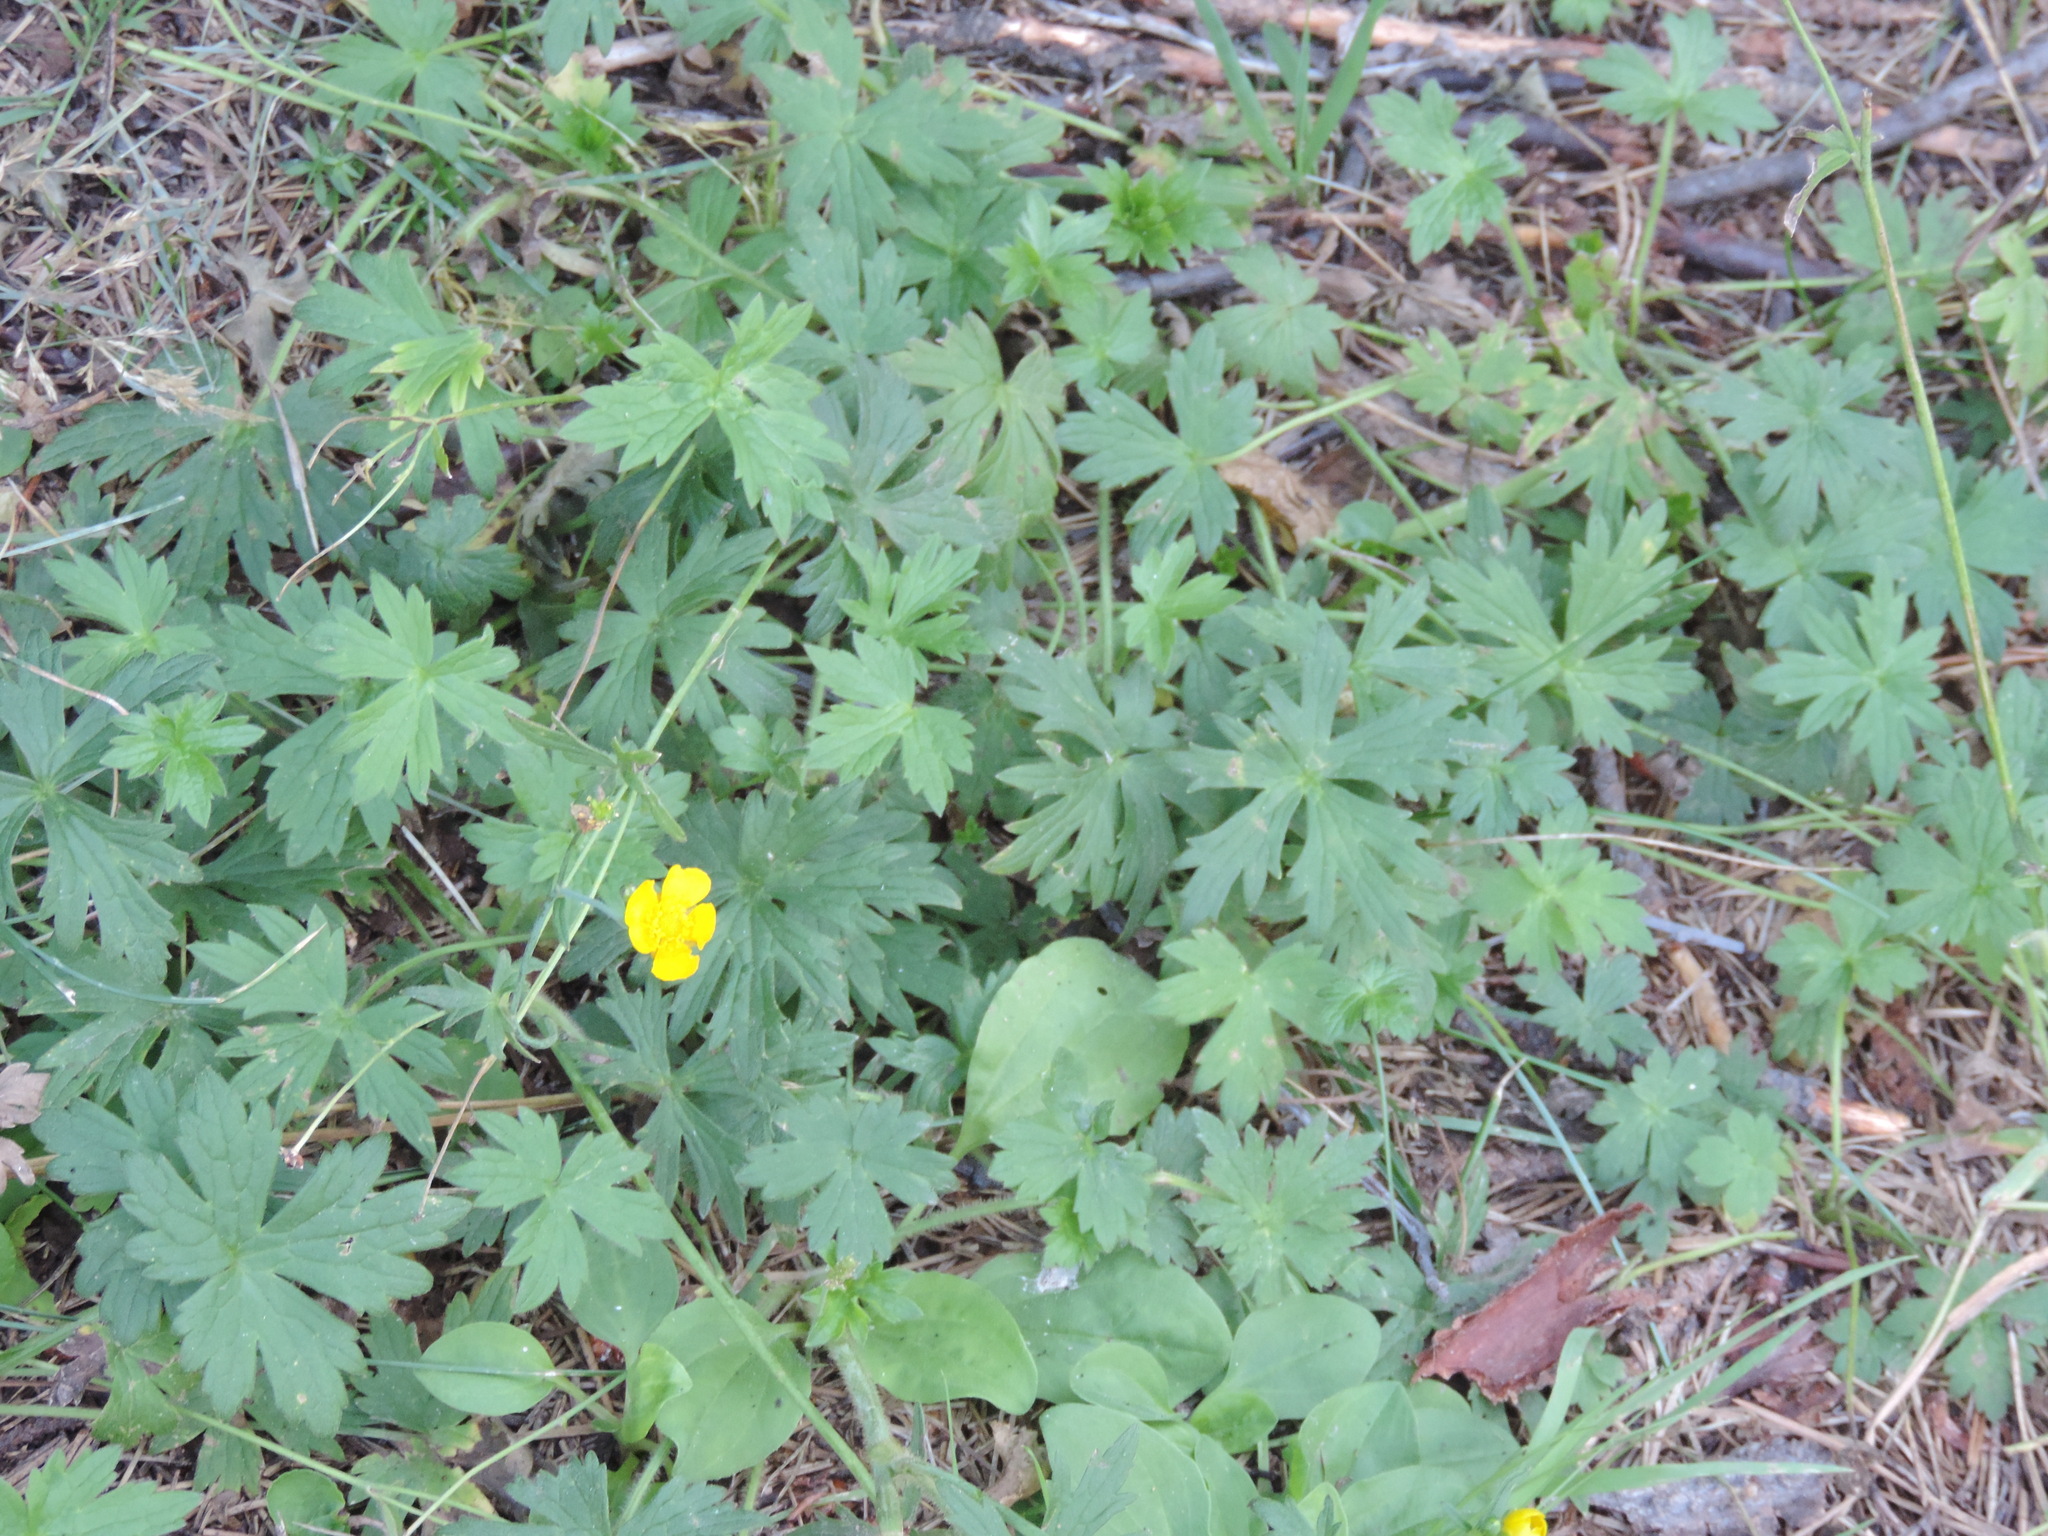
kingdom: Plantae
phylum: Tracheophyta
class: Magnoliopsida
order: Ranunculales
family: Ranunculaceae
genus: Ranunculus
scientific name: Ranunculus acris
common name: Meadow buttercup
